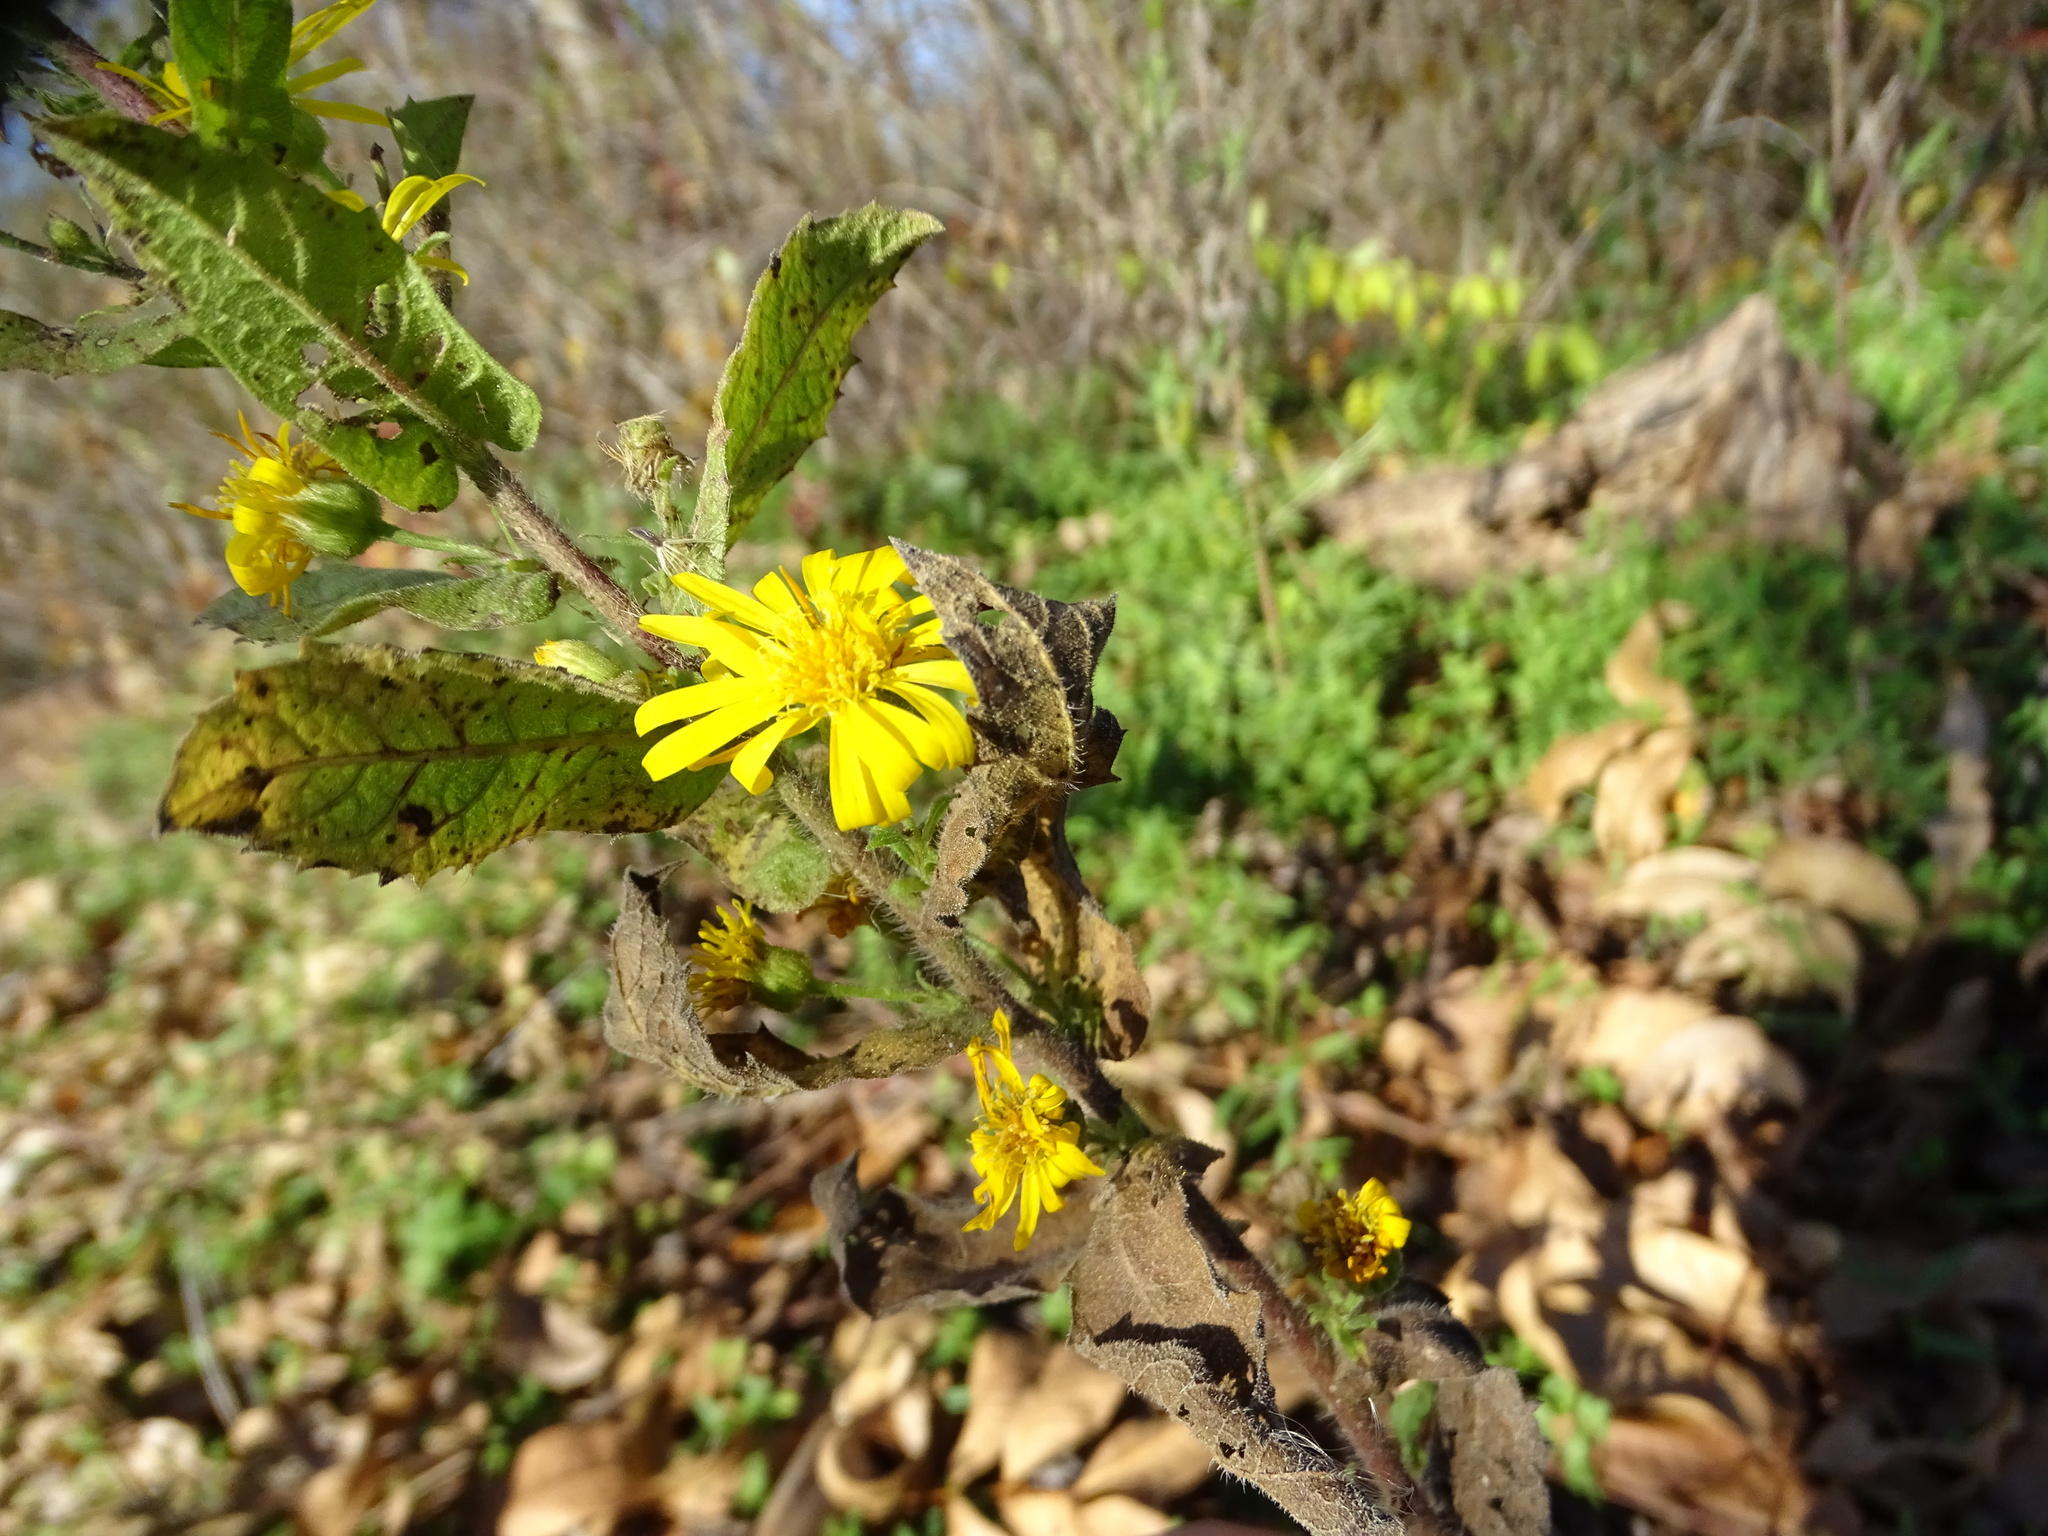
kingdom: Plantae
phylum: Tracheophyta
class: Magnoliopsida
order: Asterales
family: Asteraceae
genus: Heterotheca
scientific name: Heterotheca subaxillaris
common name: Camphorweed
